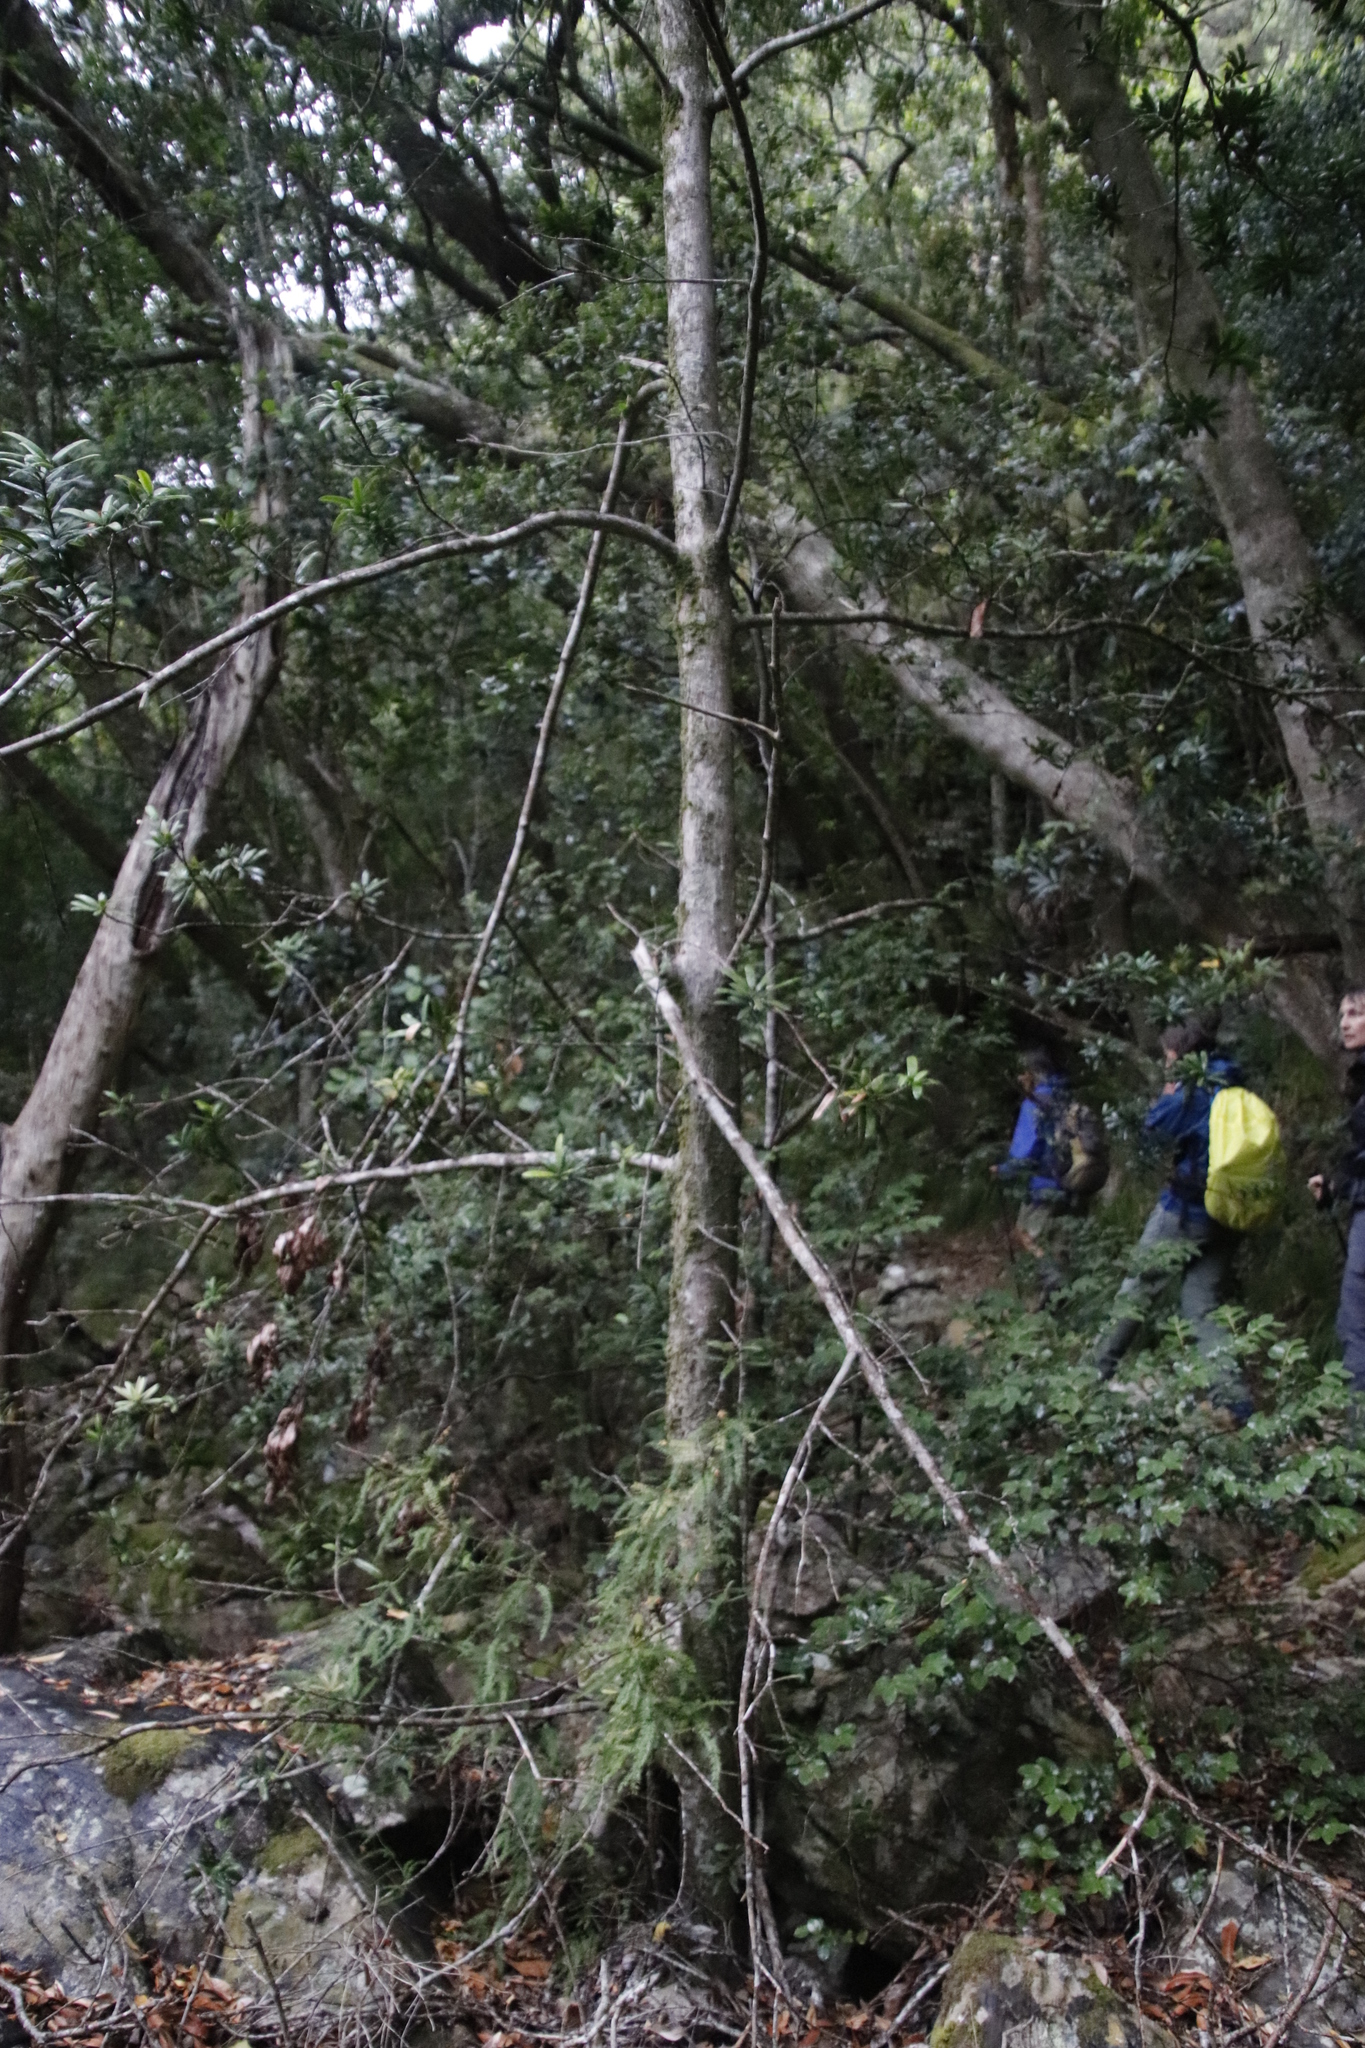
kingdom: Plantae
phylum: Tracheophyta
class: Pinopsida
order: Pinales
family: Podocarpaceae
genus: Podocarpus
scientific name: Podocarpus latifolius
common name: True yellowwood
